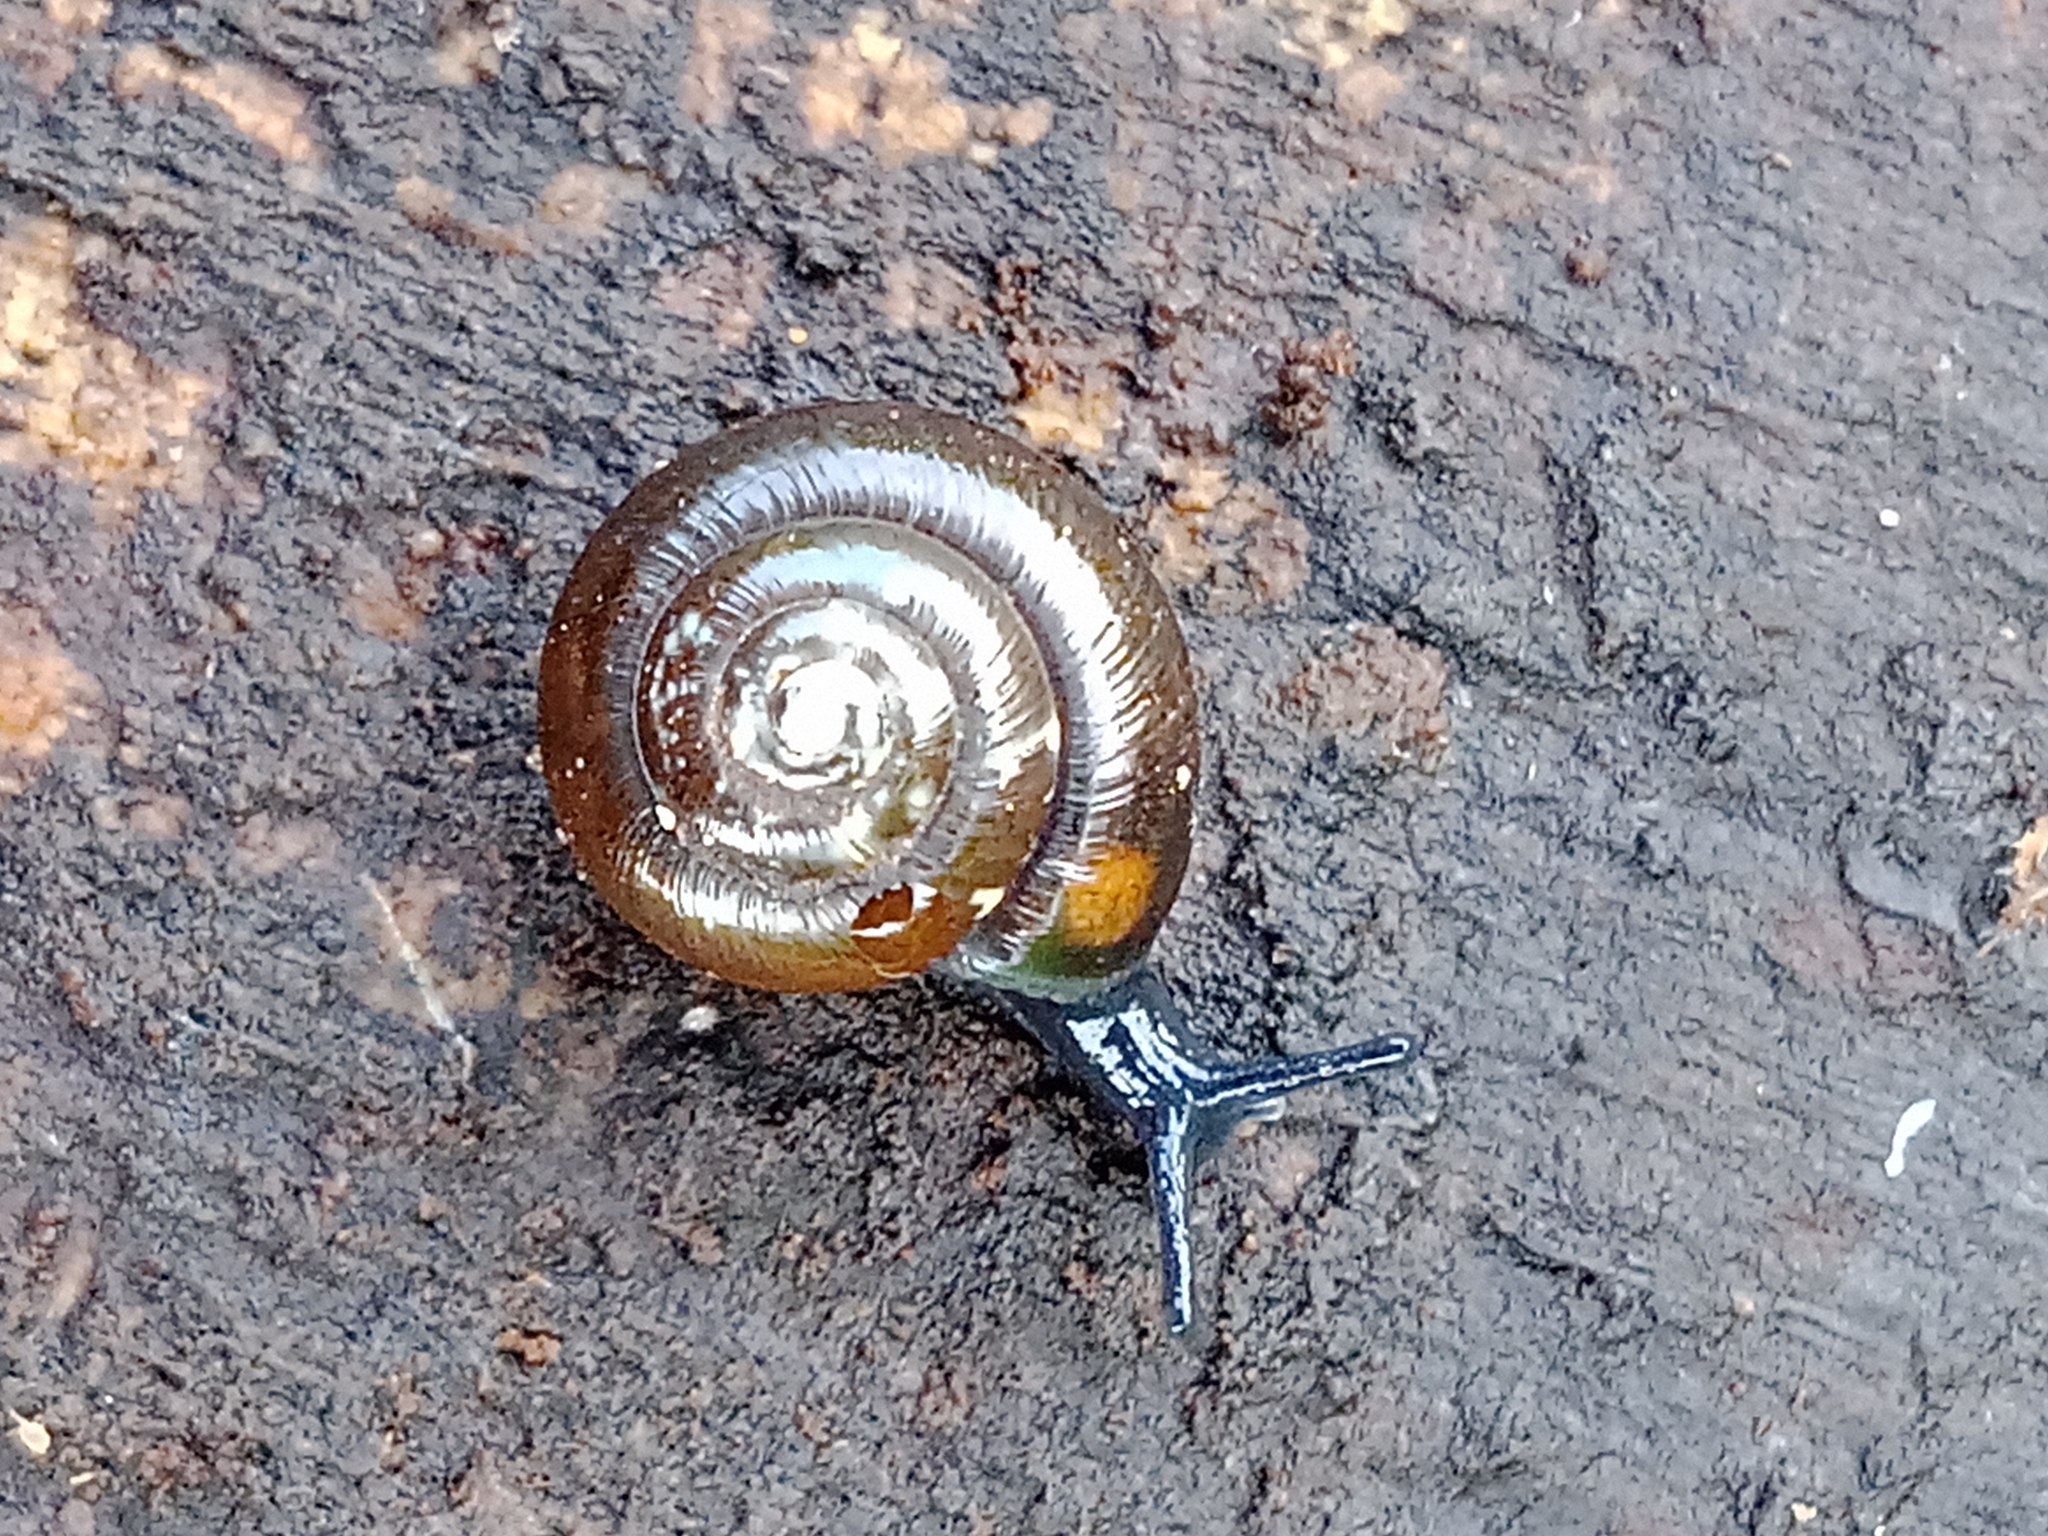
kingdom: Animalia
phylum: Mollusca
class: Gastropoda
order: Stylommatophora
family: Gastrodontidae
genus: Zonitoides
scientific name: Zonitoides nitidus
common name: Shiny glass snail
